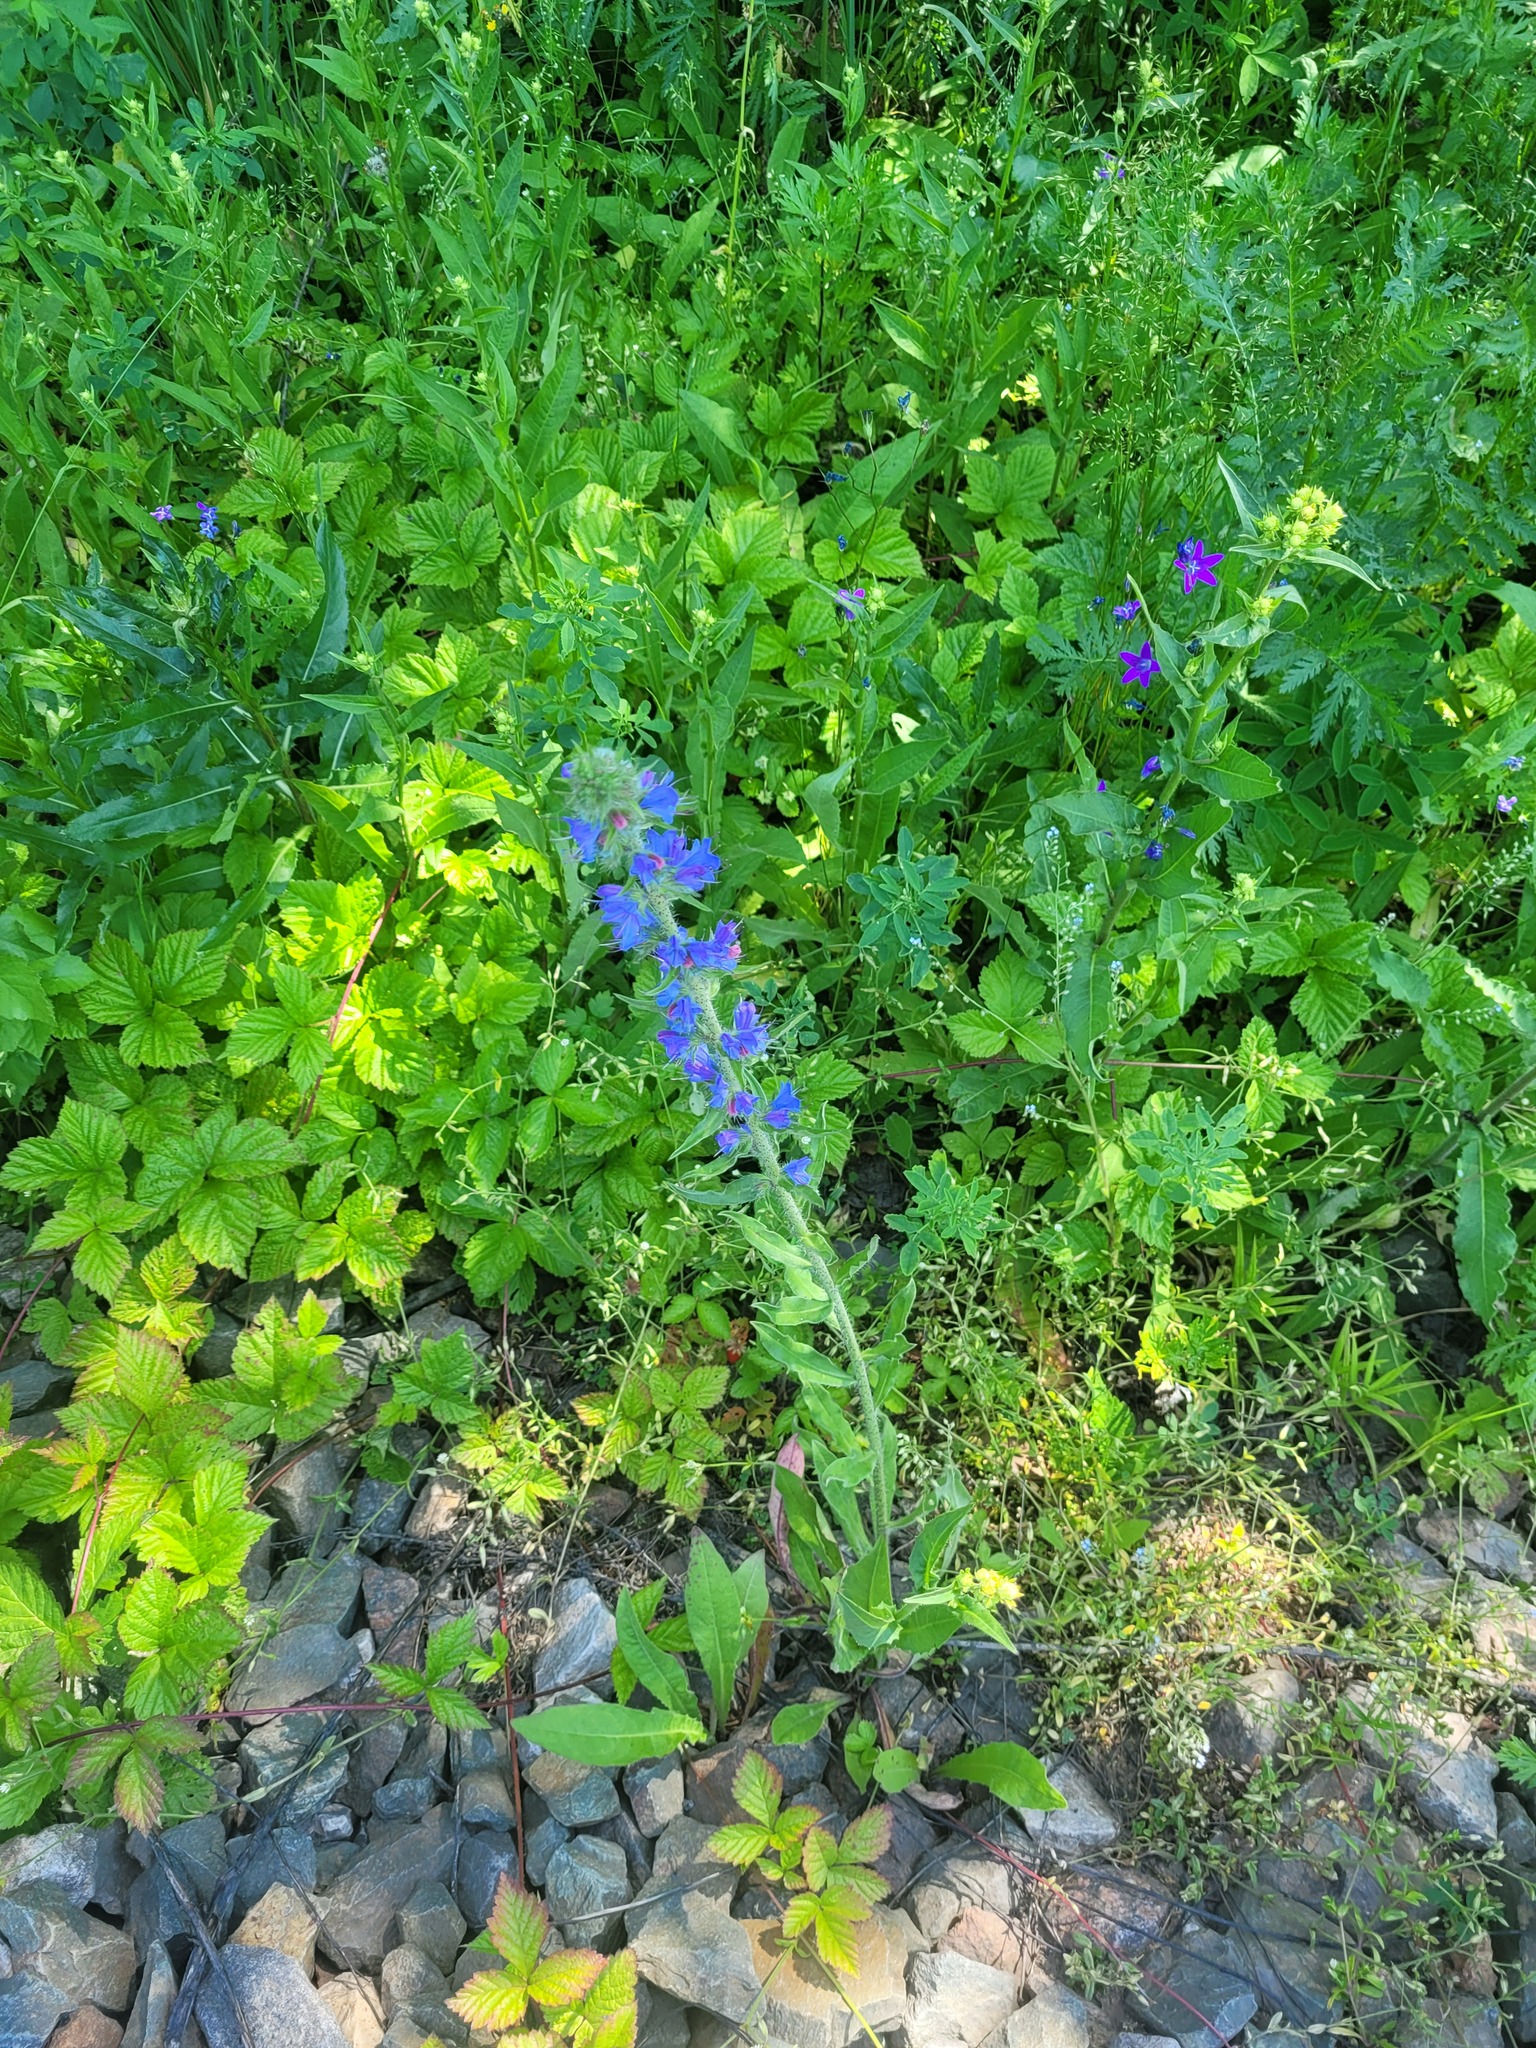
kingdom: Plantae
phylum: Tracheophyta
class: Magnoliopsida
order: Boraginales
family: Boraginaceae
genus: Echium
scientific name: Echium vulgare
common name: Common viper's bugloss
